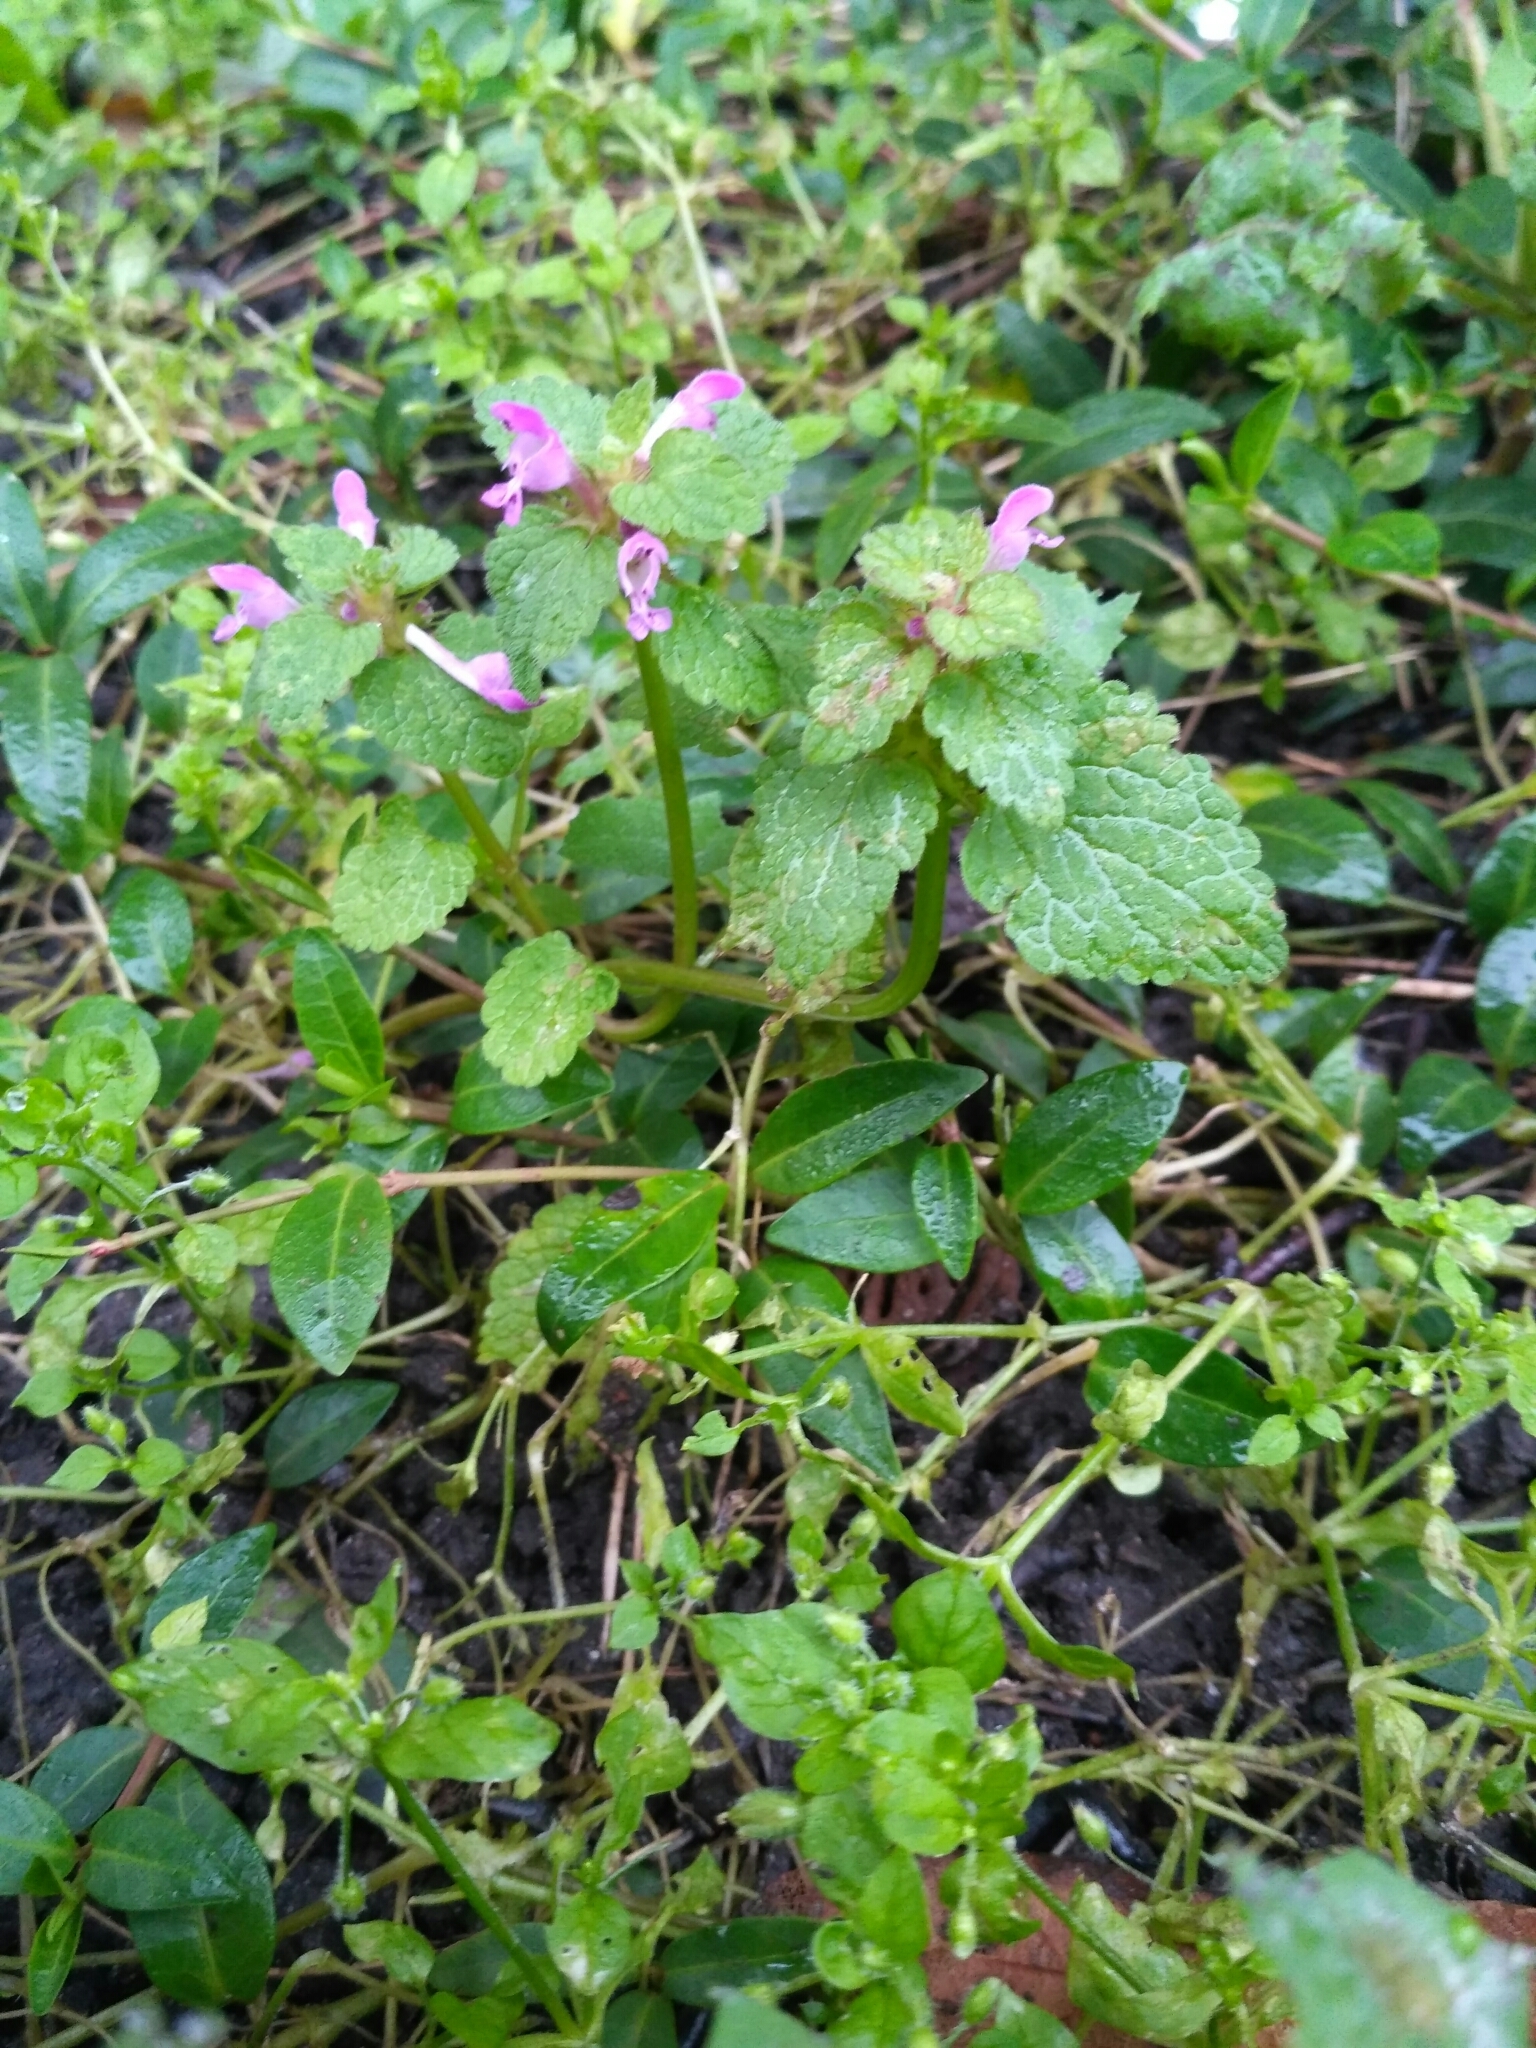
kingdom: Plantae
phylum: Tracheophyta
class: Magnoliopsida
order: Lamiales
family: Lamiaceae
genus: Lamium
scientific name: Lamium purpureum
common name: Red dead-nettle
